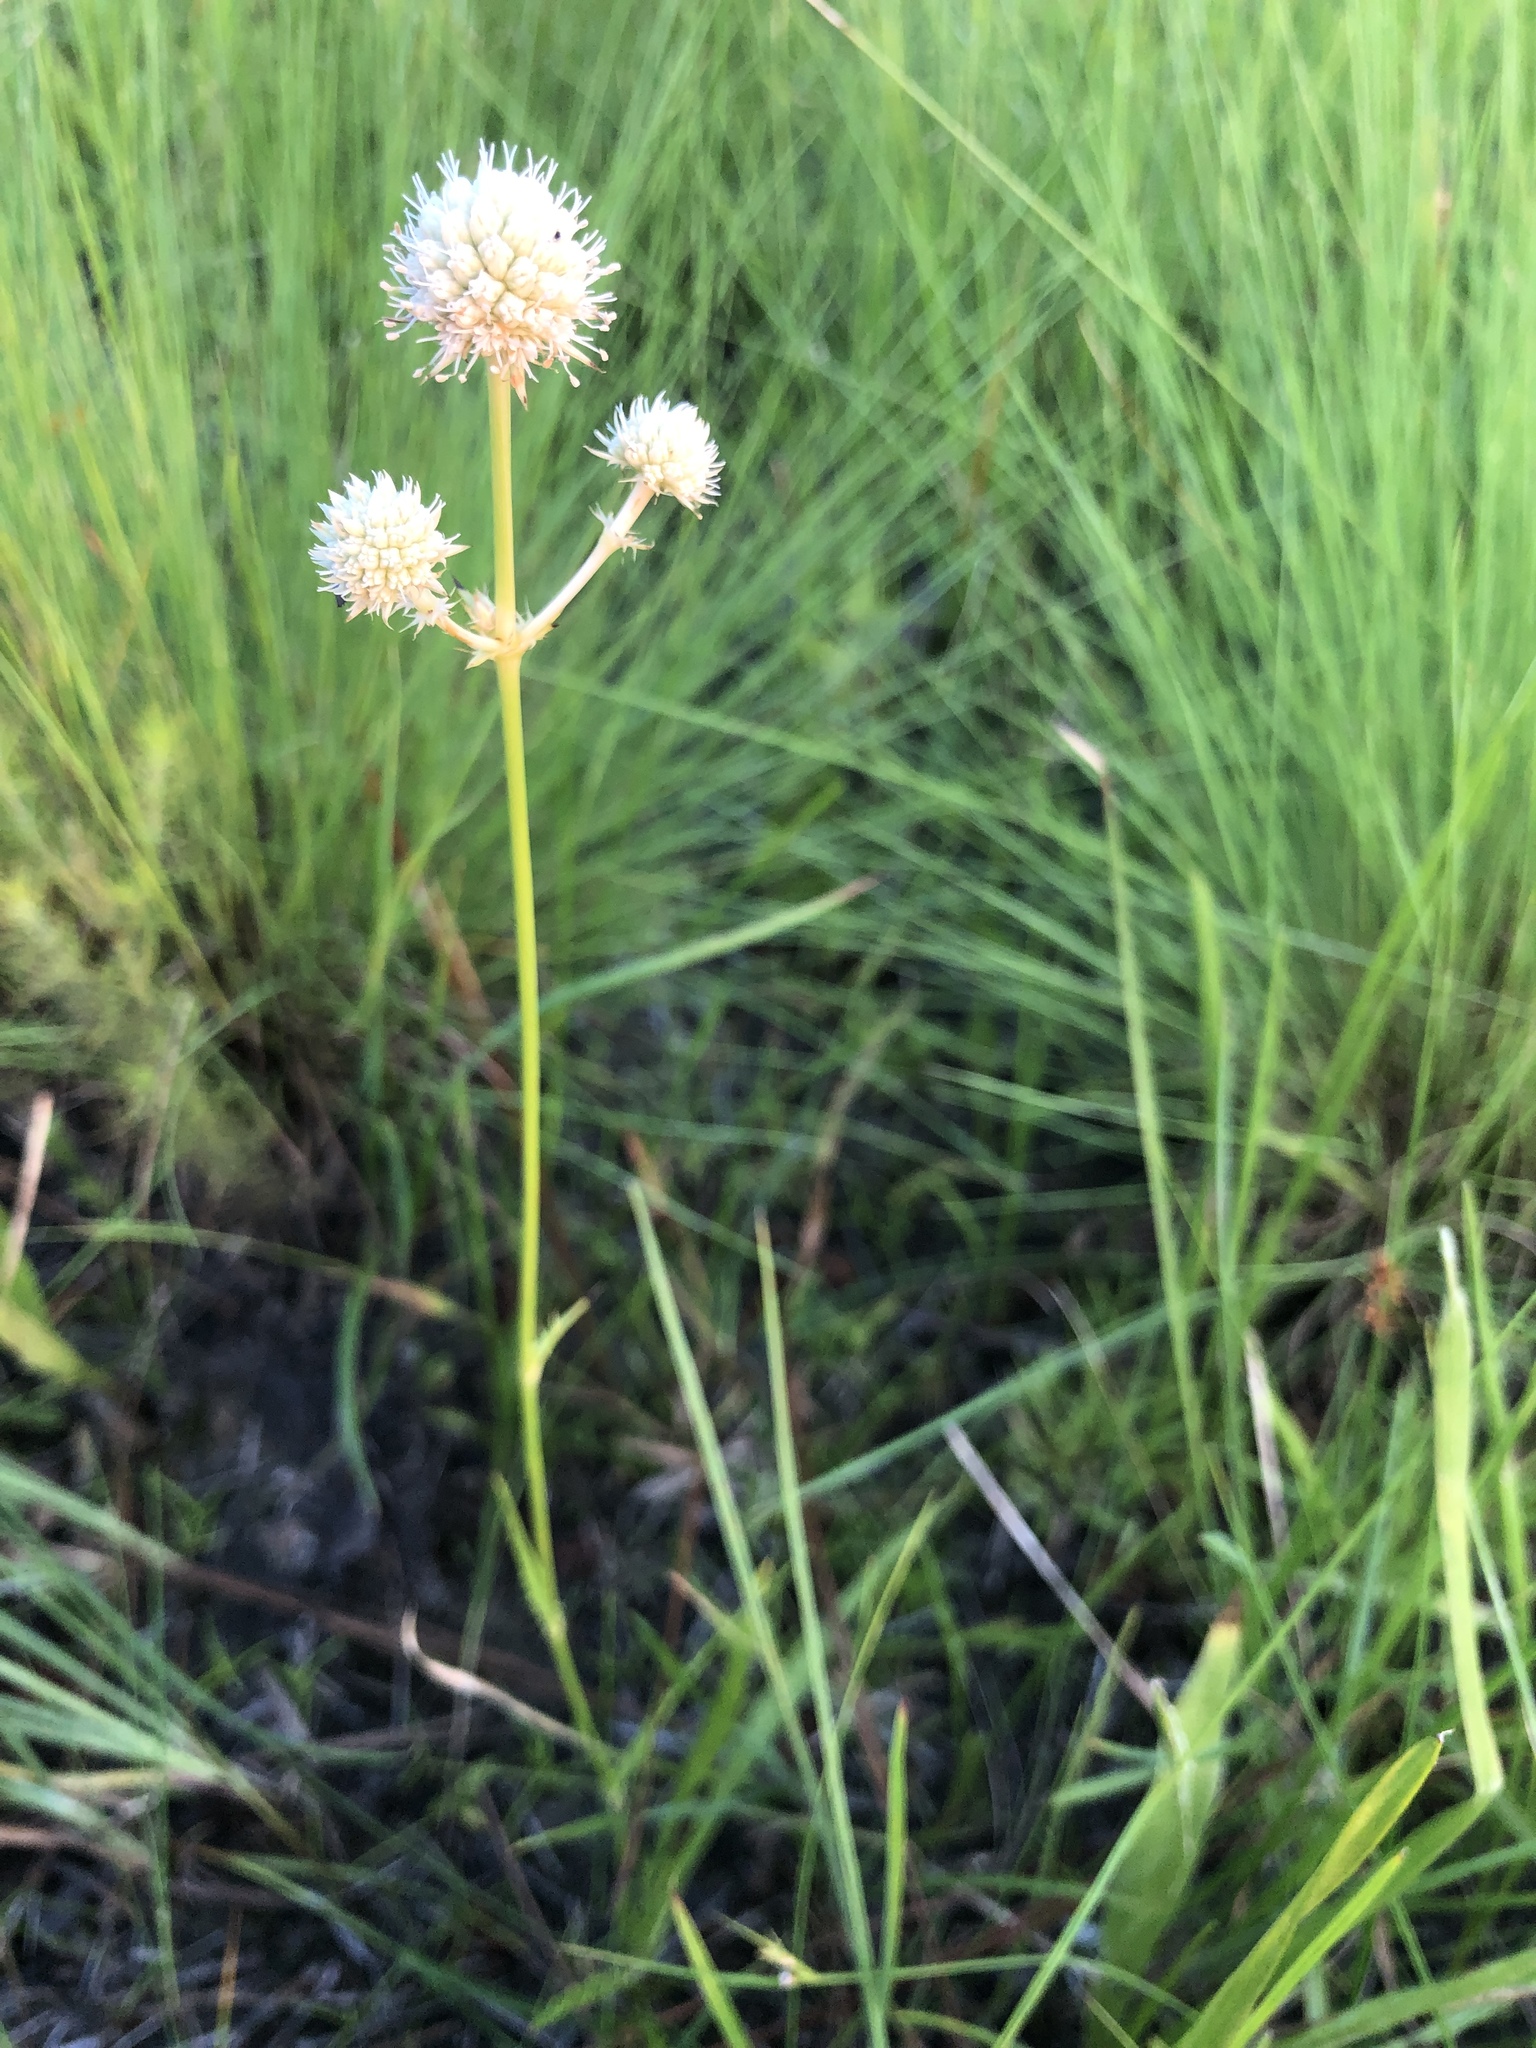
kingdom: Plantae
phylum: Tracheophyta
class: Magnoliopsida
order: Apiales
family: Apiaceae
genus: Eryngium
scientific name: Eryngium yuccifolium
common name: Button eryngo
